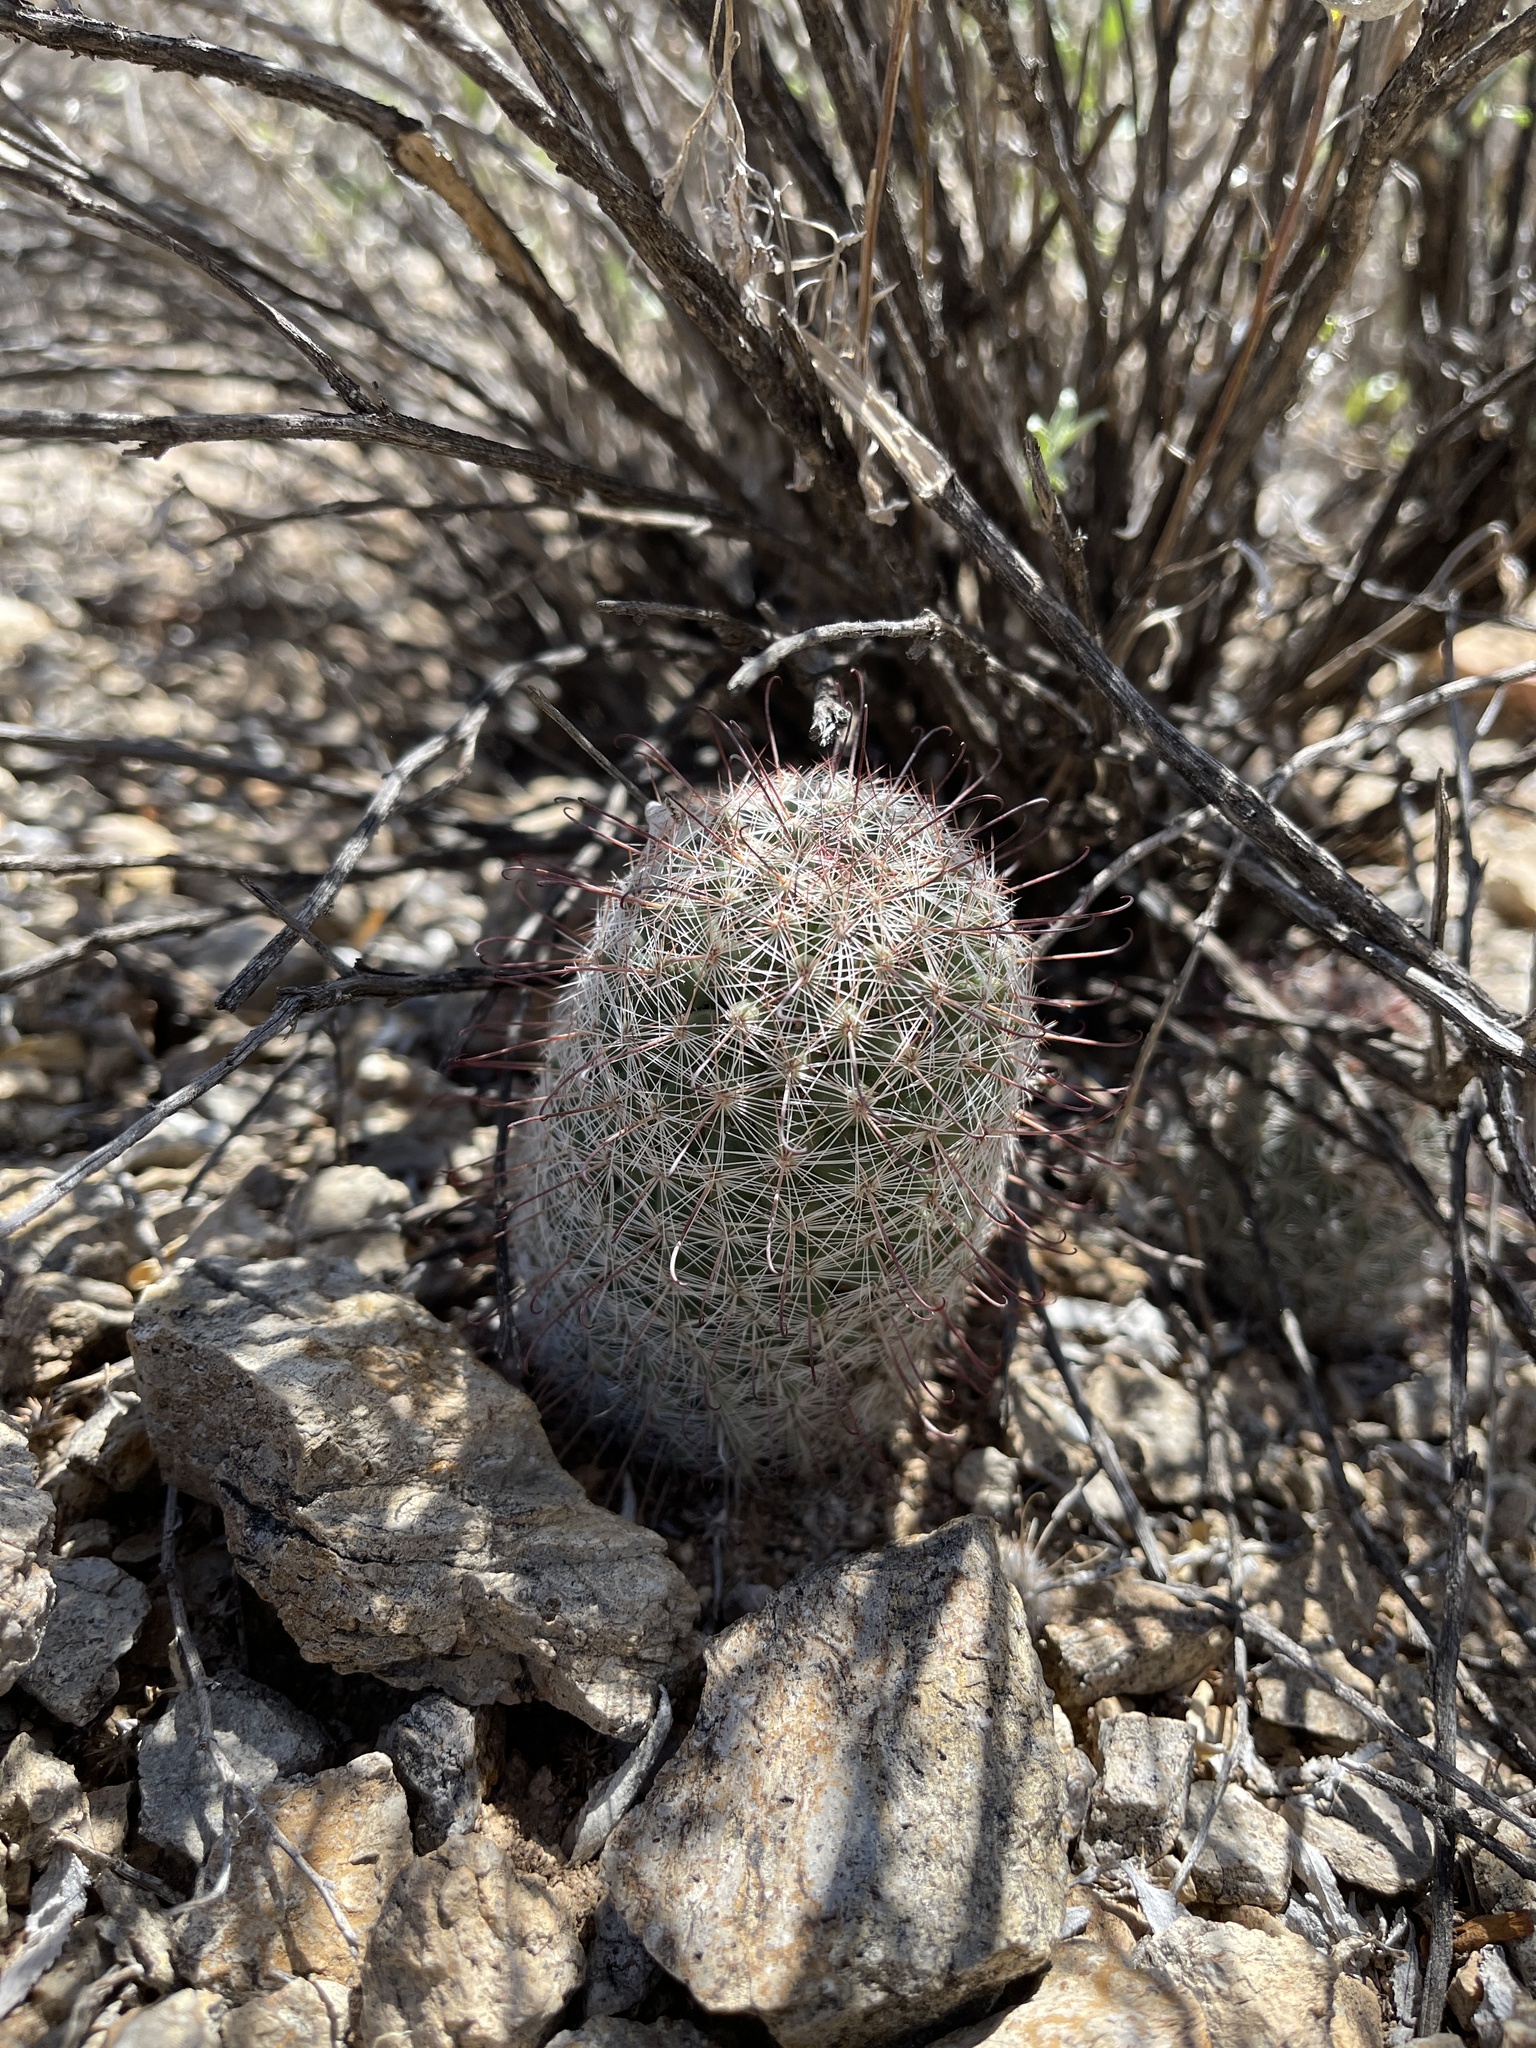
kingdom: Plantae
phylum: Tracheophyta
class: Magnoliopsida
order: Caryophyllales
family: Cactaceae
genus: Cochemiea
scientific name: Cochemiea grahamii
